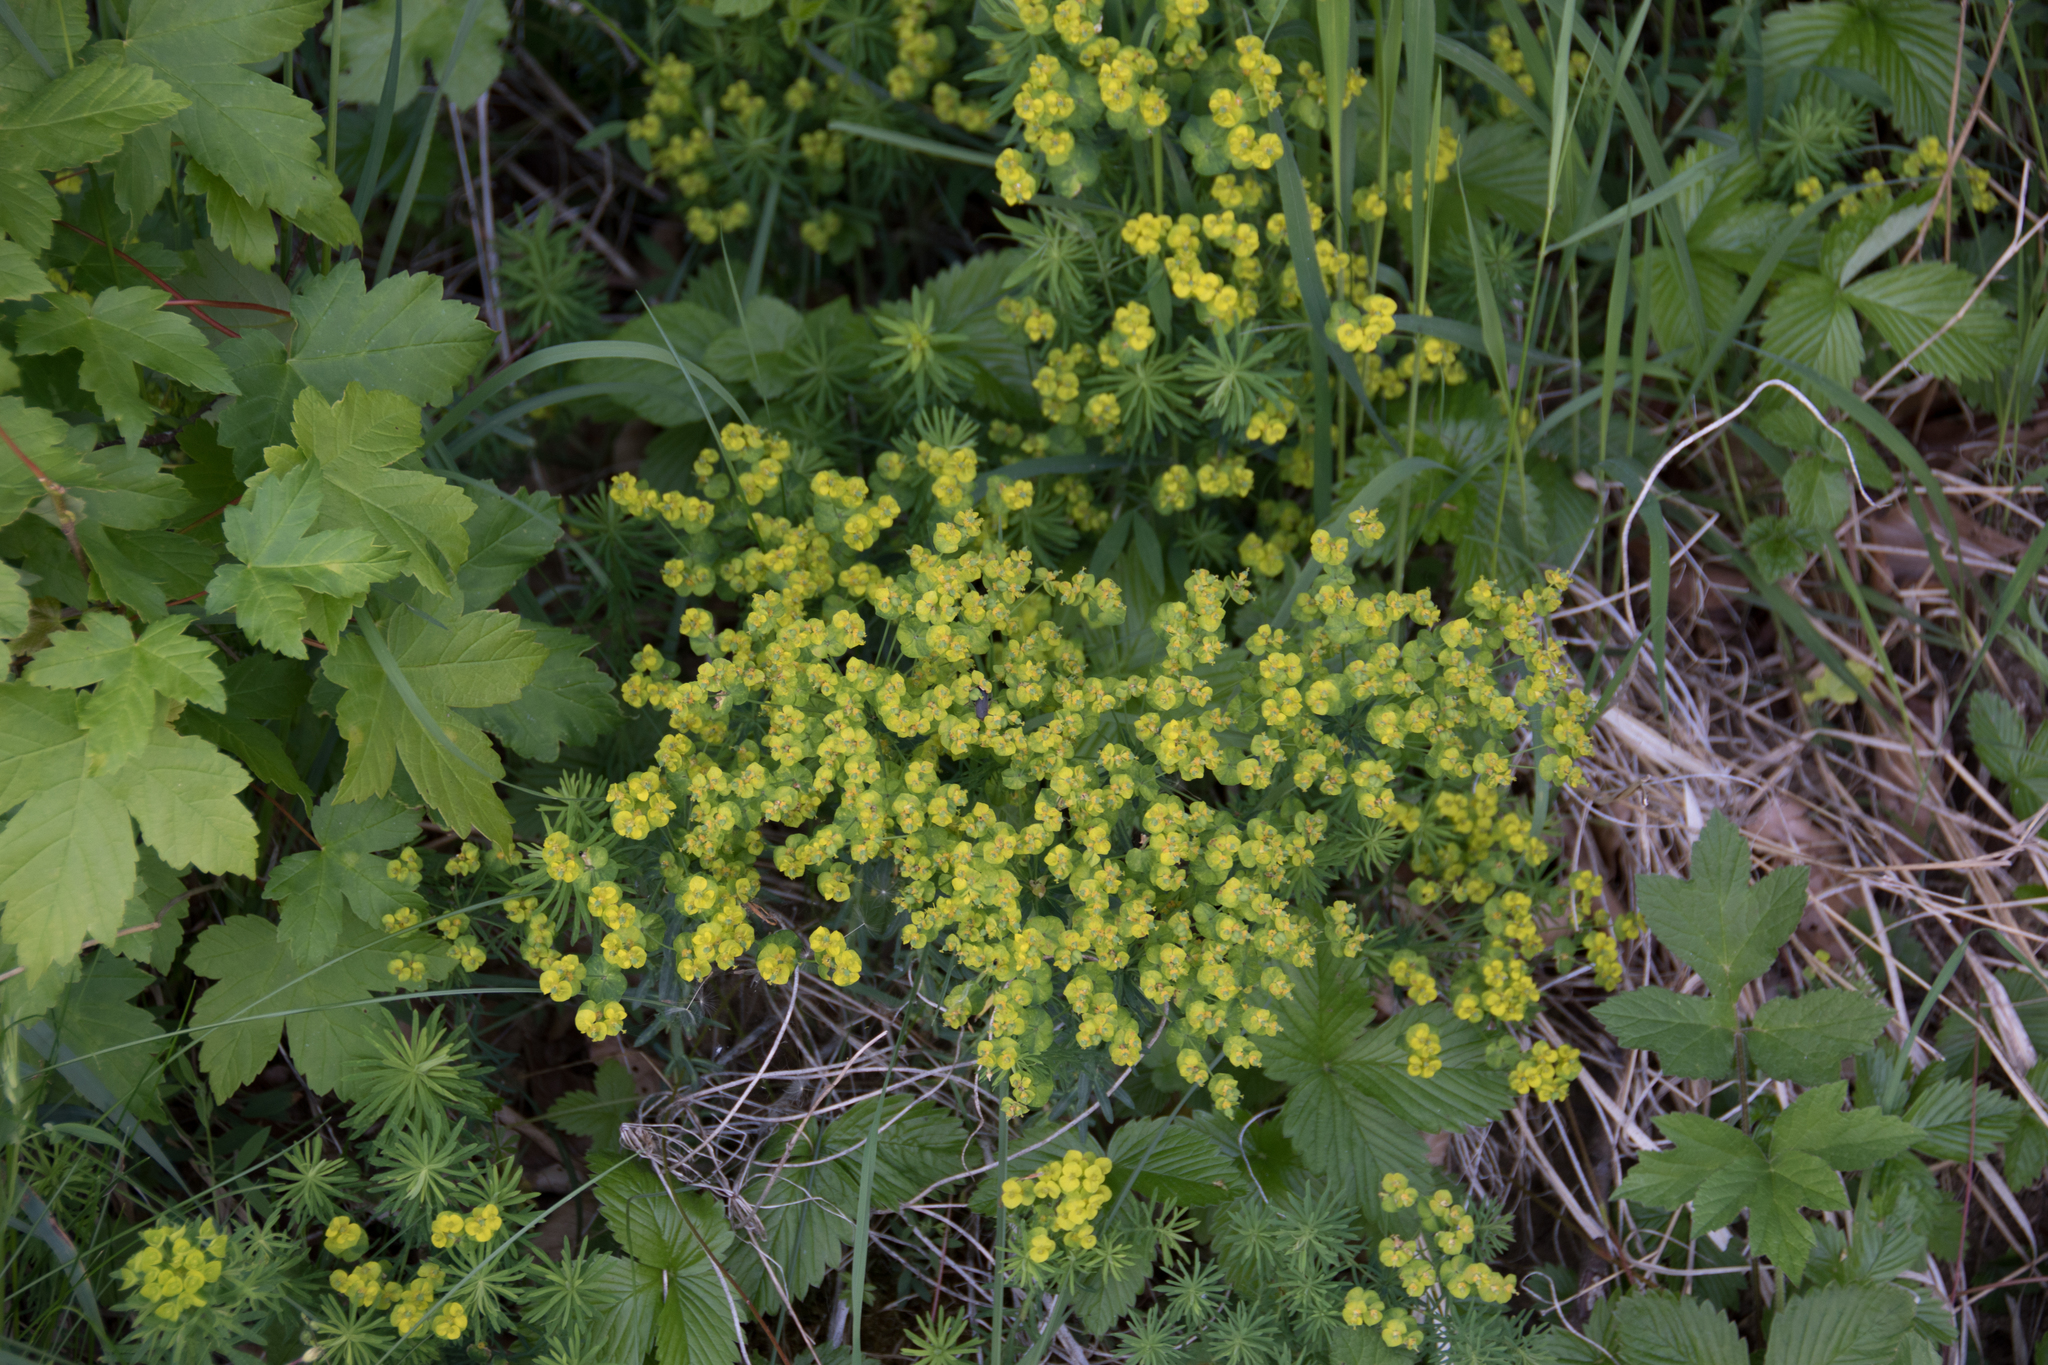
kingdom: Plantae
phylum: Tracheophyta
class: Magnoliopsida
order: Malpighiales
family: Euphorbiaceae
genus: Euphorbia
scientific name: Euphorbia cyparissias
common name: Cypress spurge
